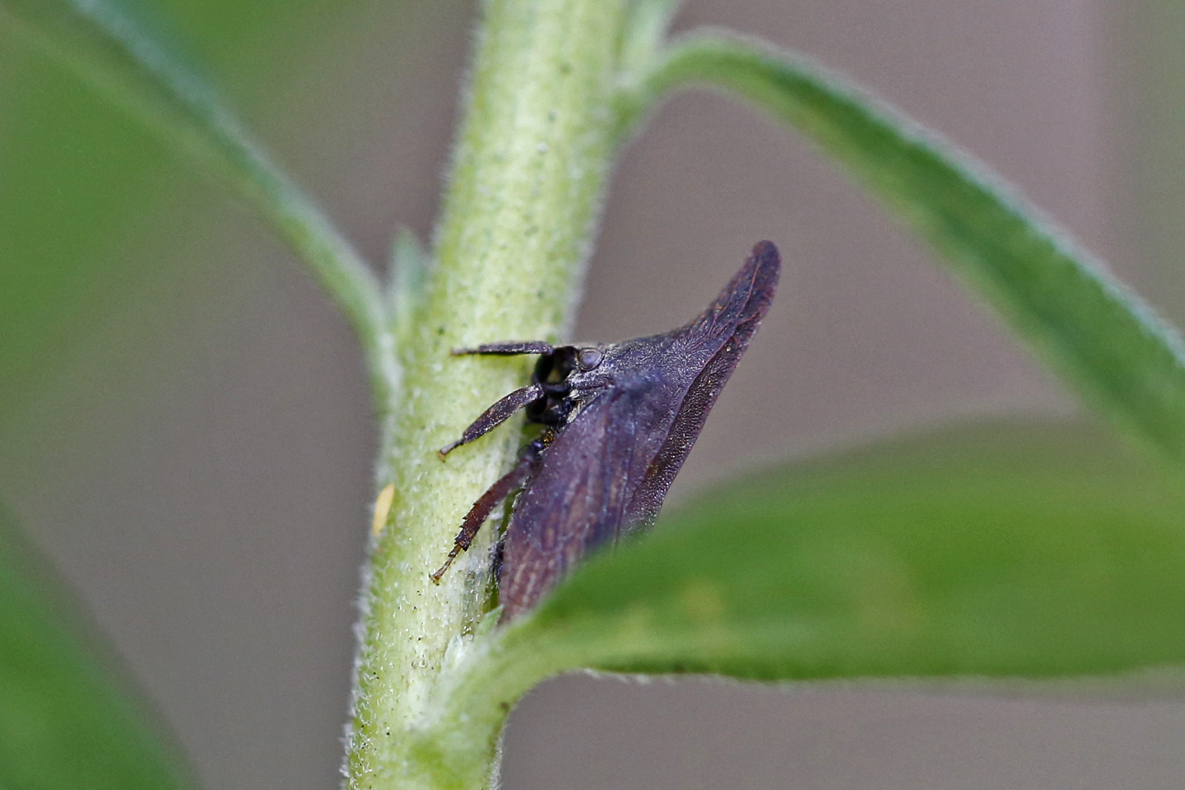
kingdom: Animalia
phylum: Arthropoda
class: Insecta
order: Hemiptera
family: Membracidae
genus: Enchenopa
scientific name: Enchenopa latipes
